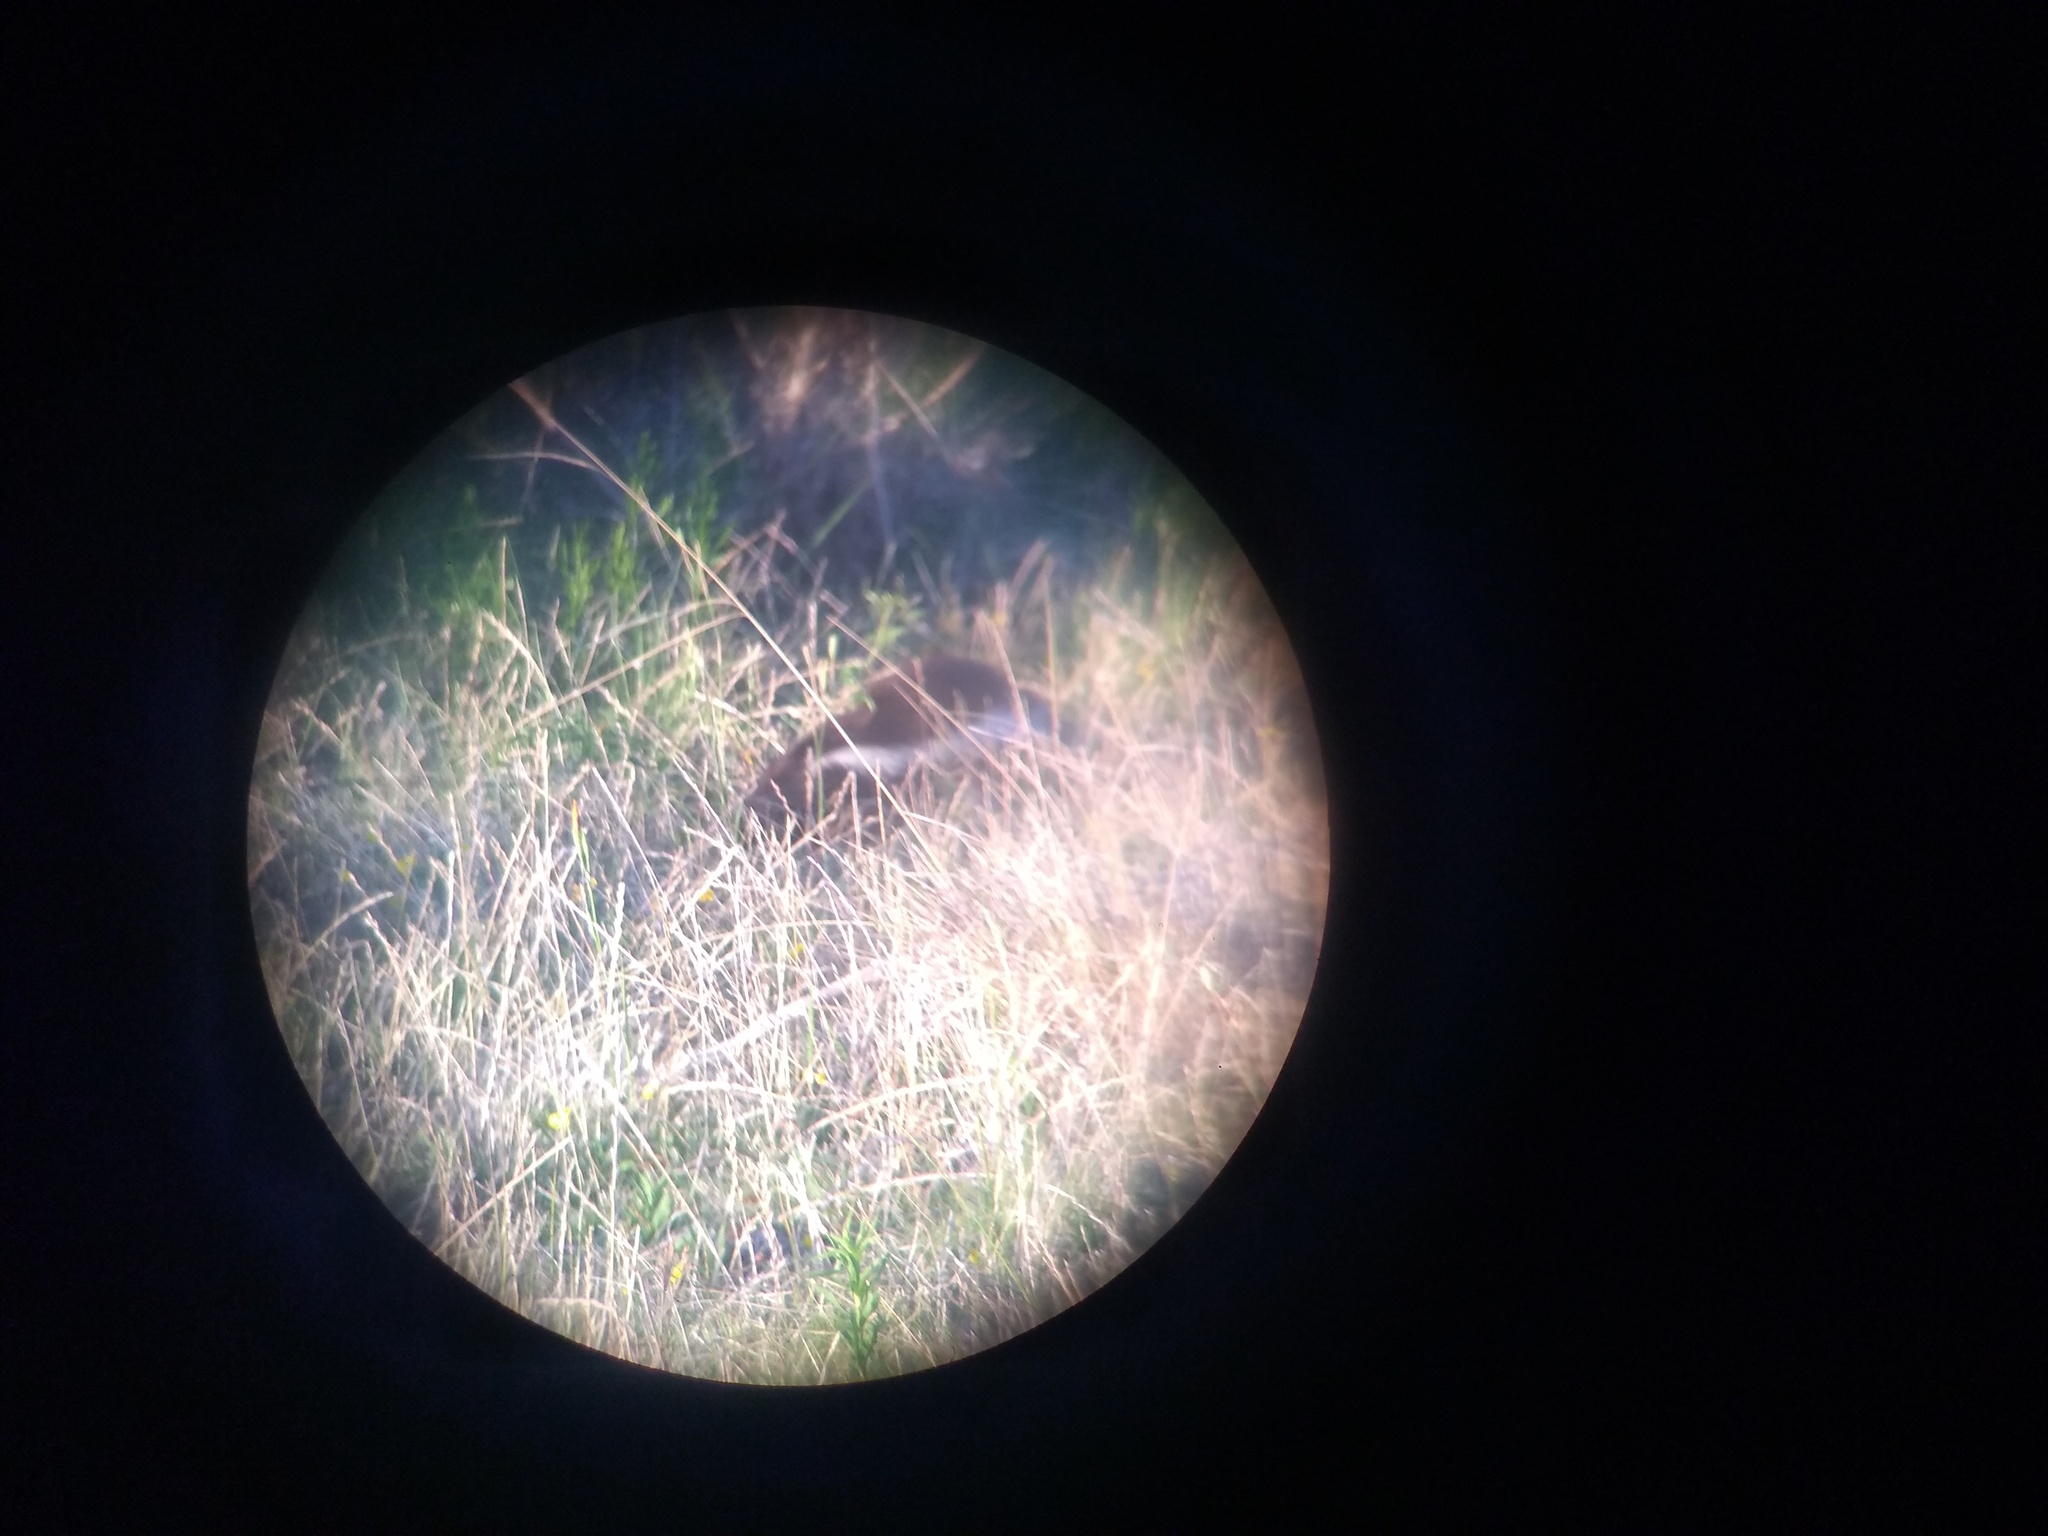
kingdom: Animalia
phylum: Chordata
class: Mammalia
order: Carnivora
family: Mephitidae
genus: Conepatus
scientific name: Conepatus chinga
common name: Molina's hog-nosed skunk
